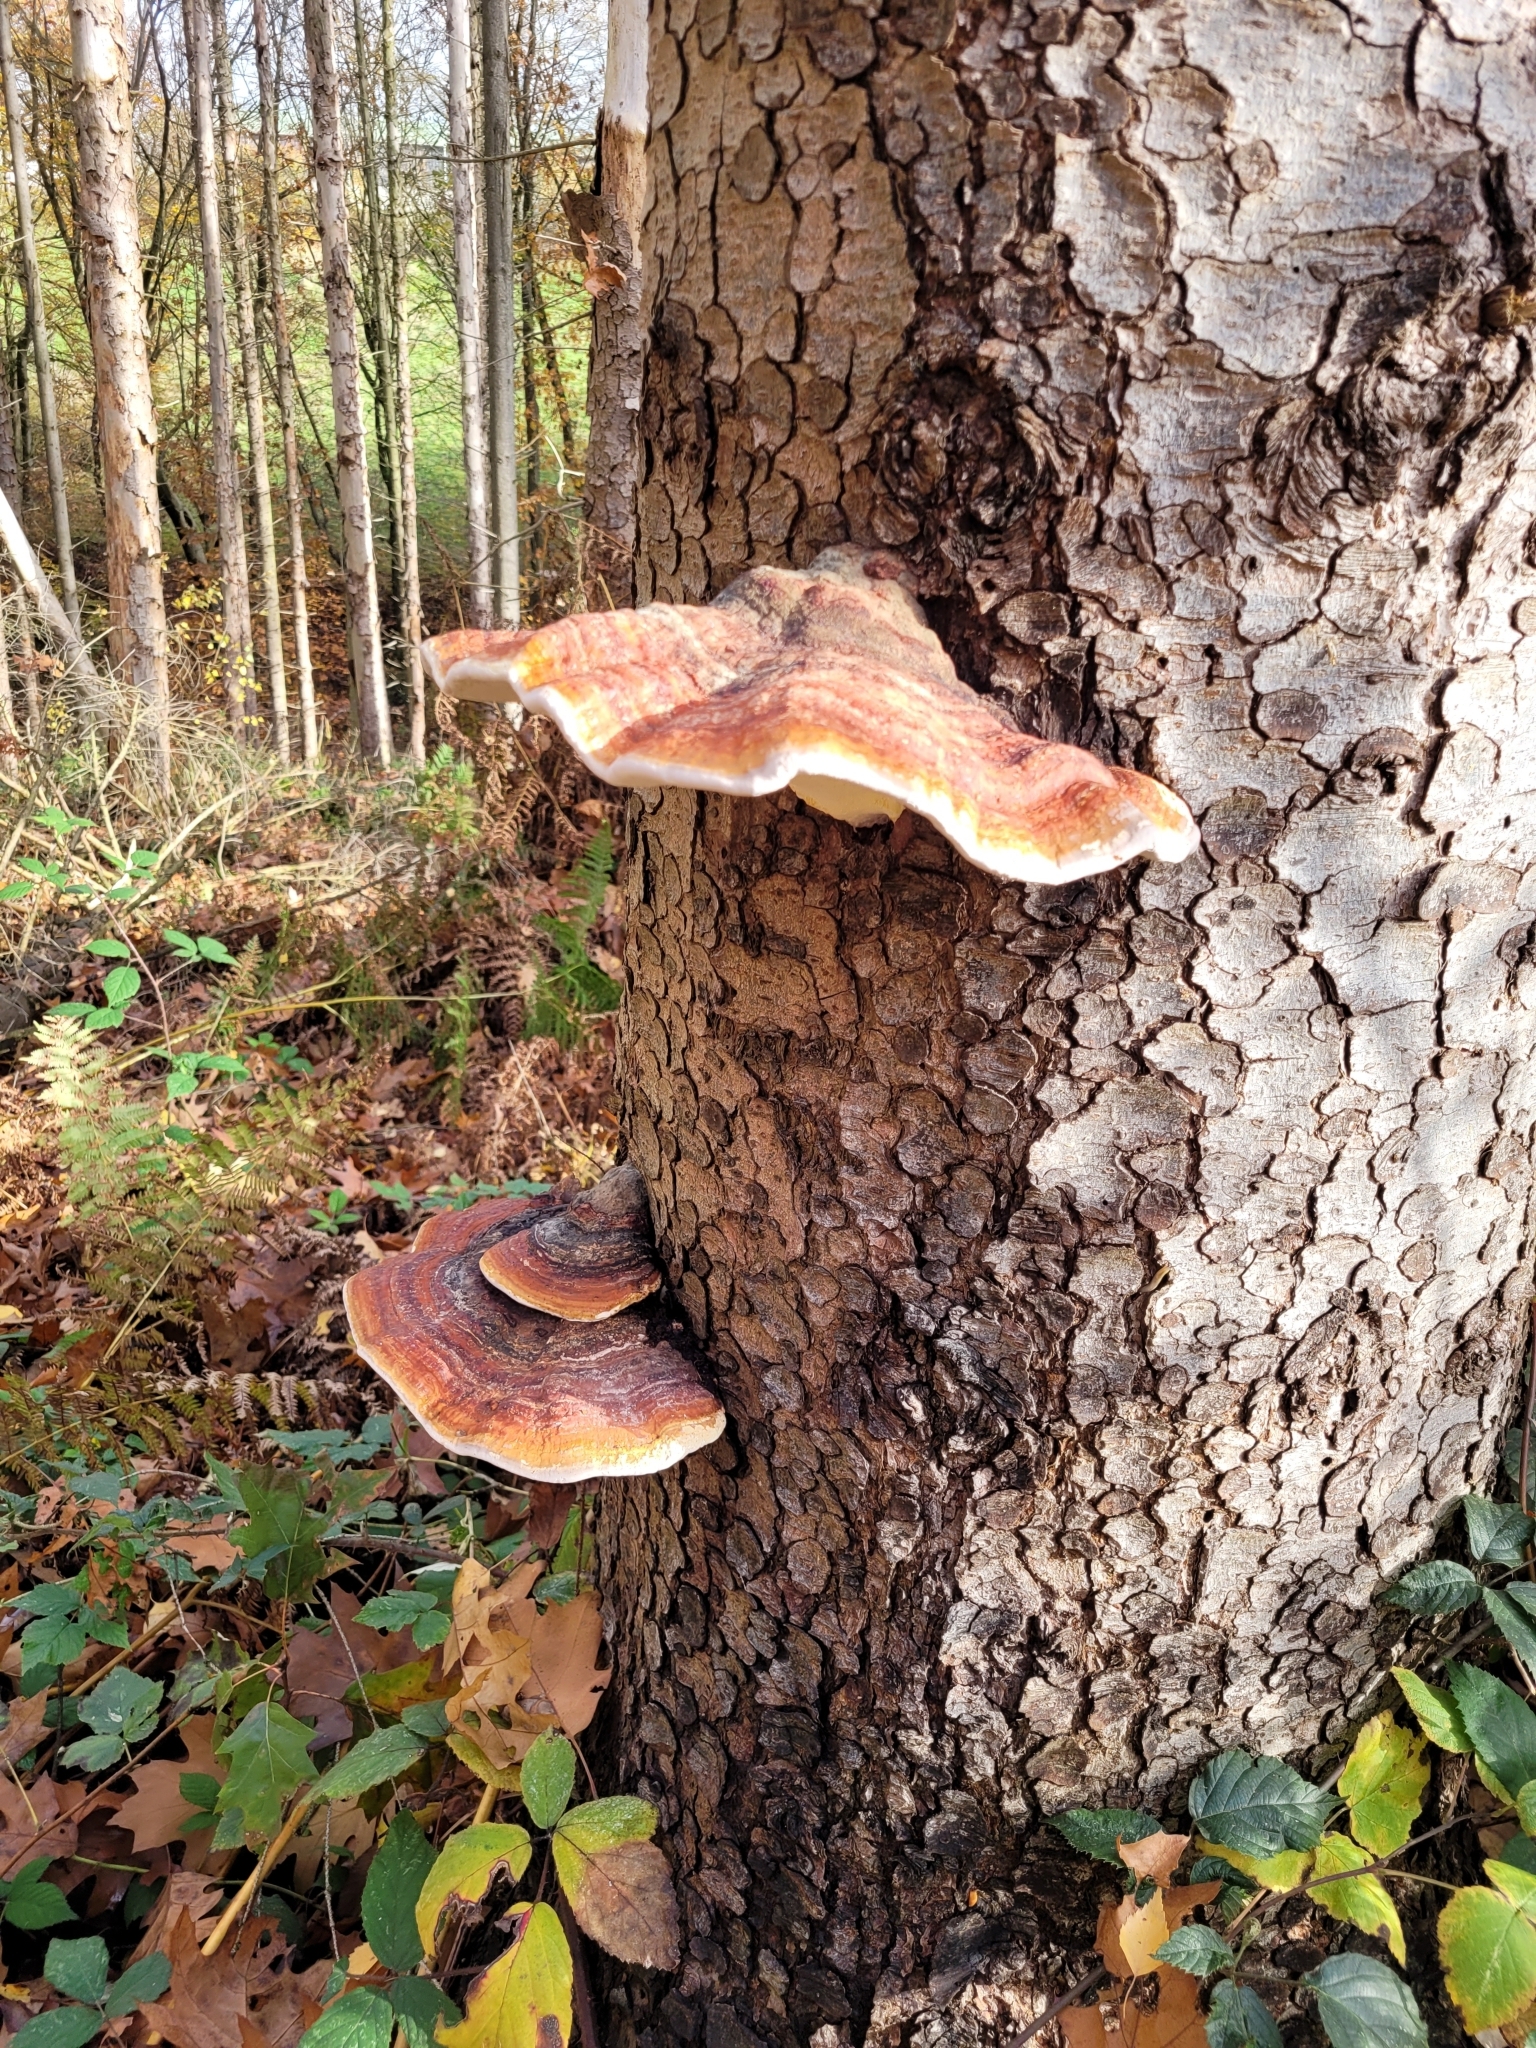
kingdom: Fungi
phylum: Basidiomycota
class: Agaricomycetes
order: Polyporales
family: Fomitopsidaceae
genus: Fomitopsis
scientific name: Fomitopsis pinicola
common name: Red-belted bracket
